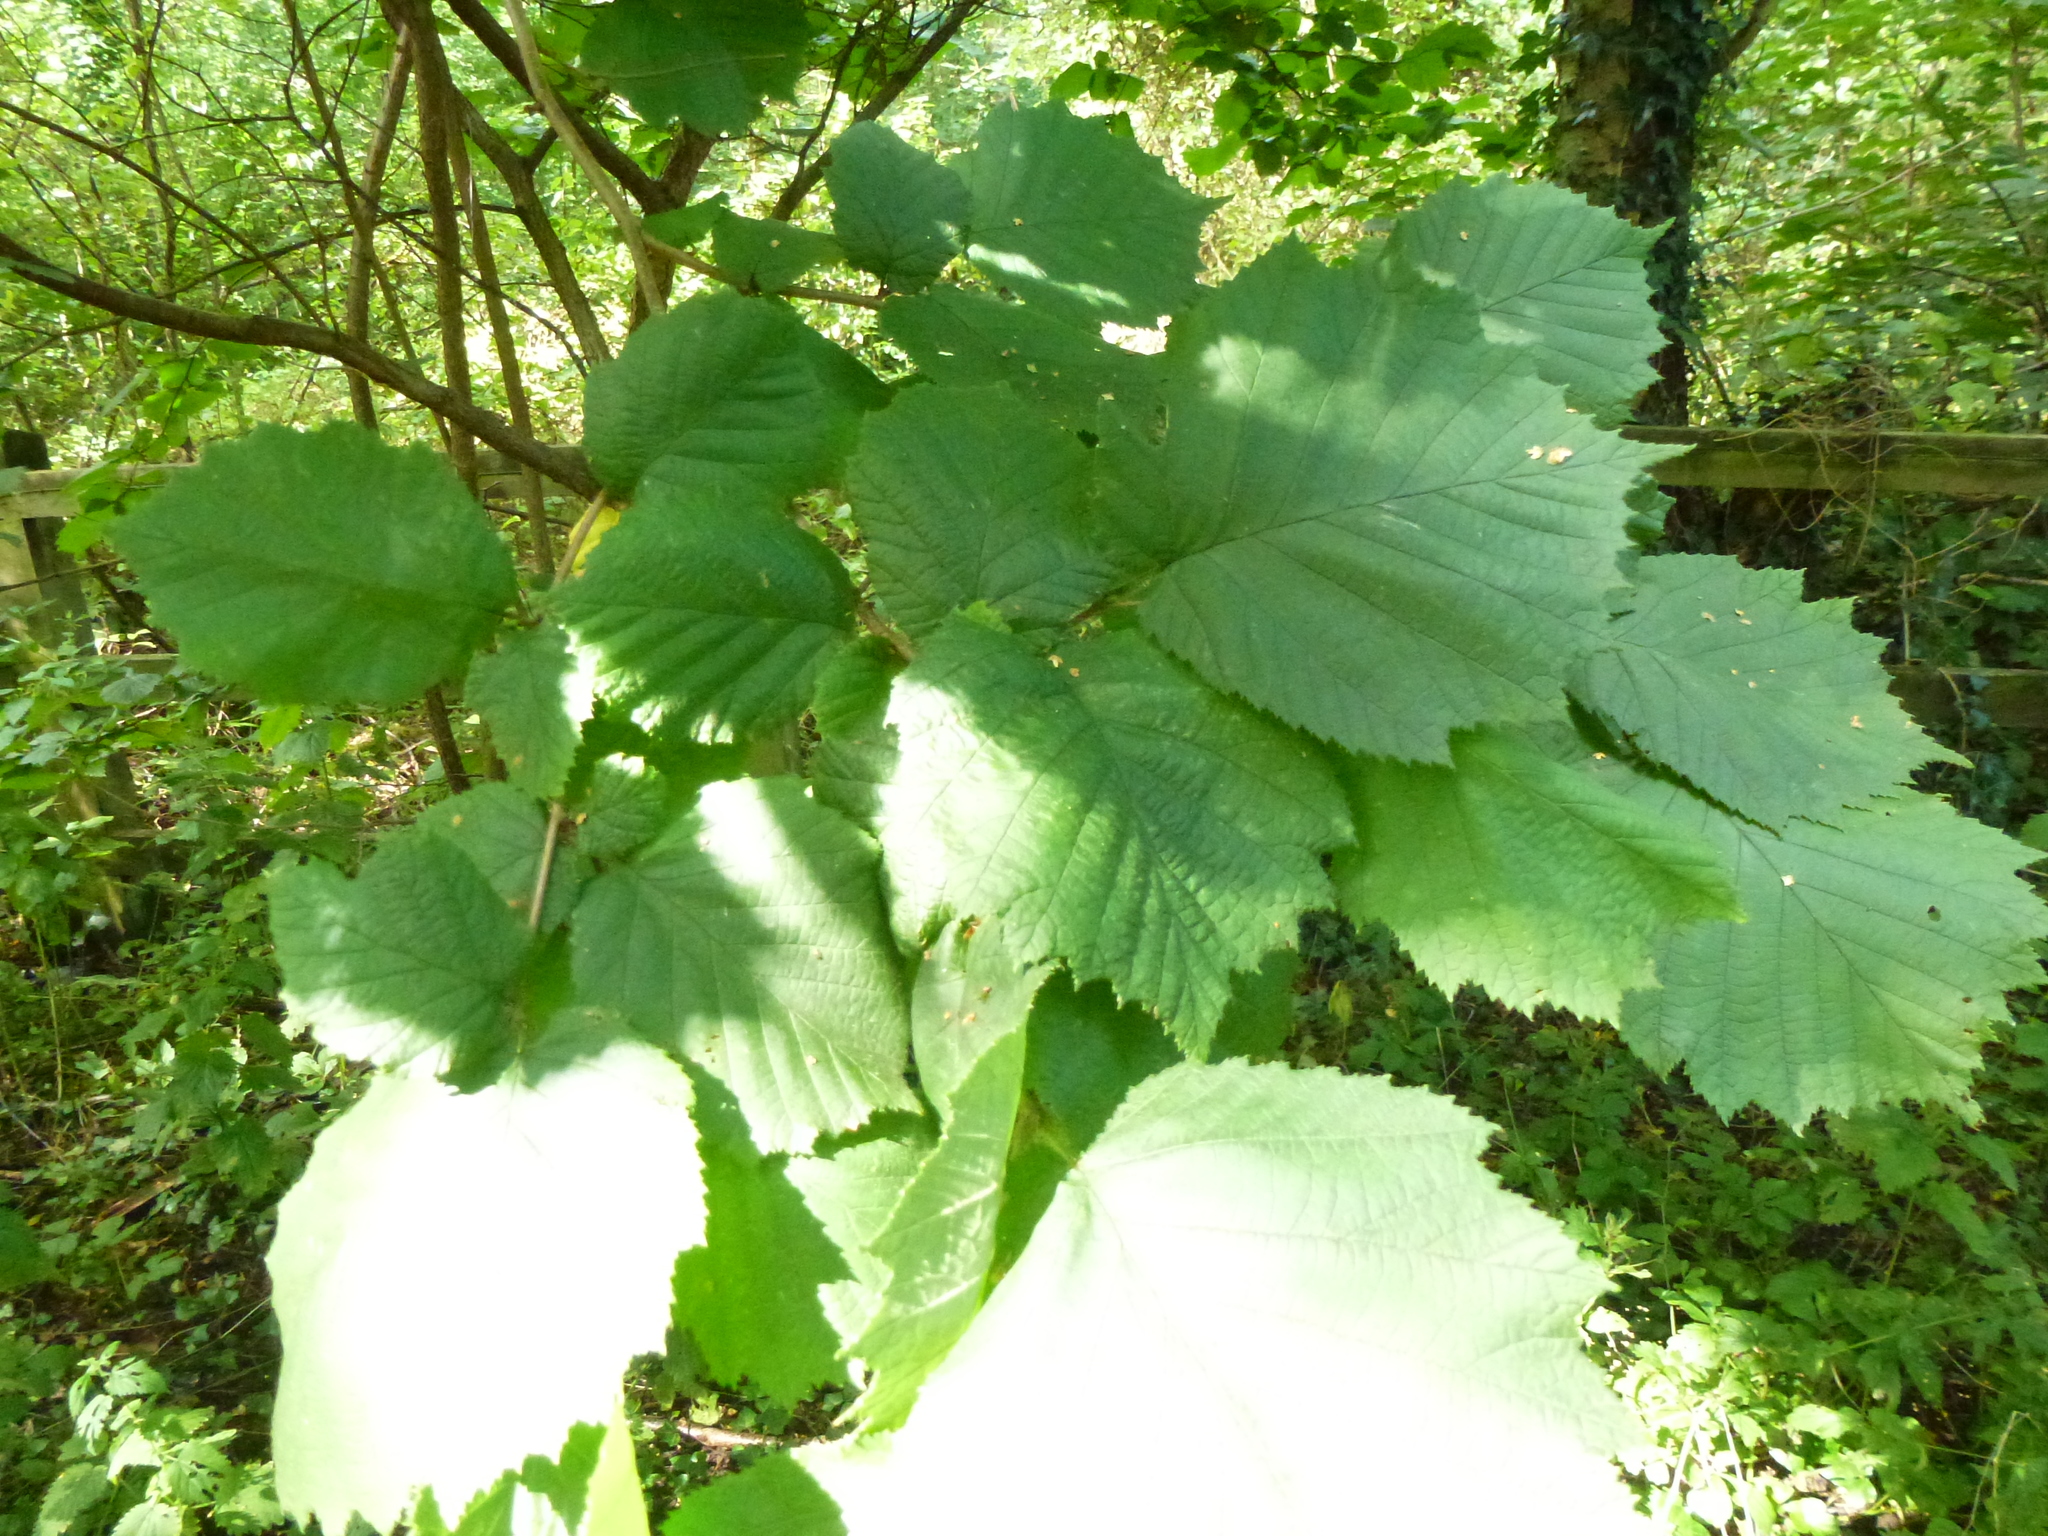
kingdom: Plantae
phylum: Tracheophyta
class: Magnoliopsida
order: Fagales
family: Betulaceae
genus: Corylus
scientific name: Corylus avellana
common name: European hazel
